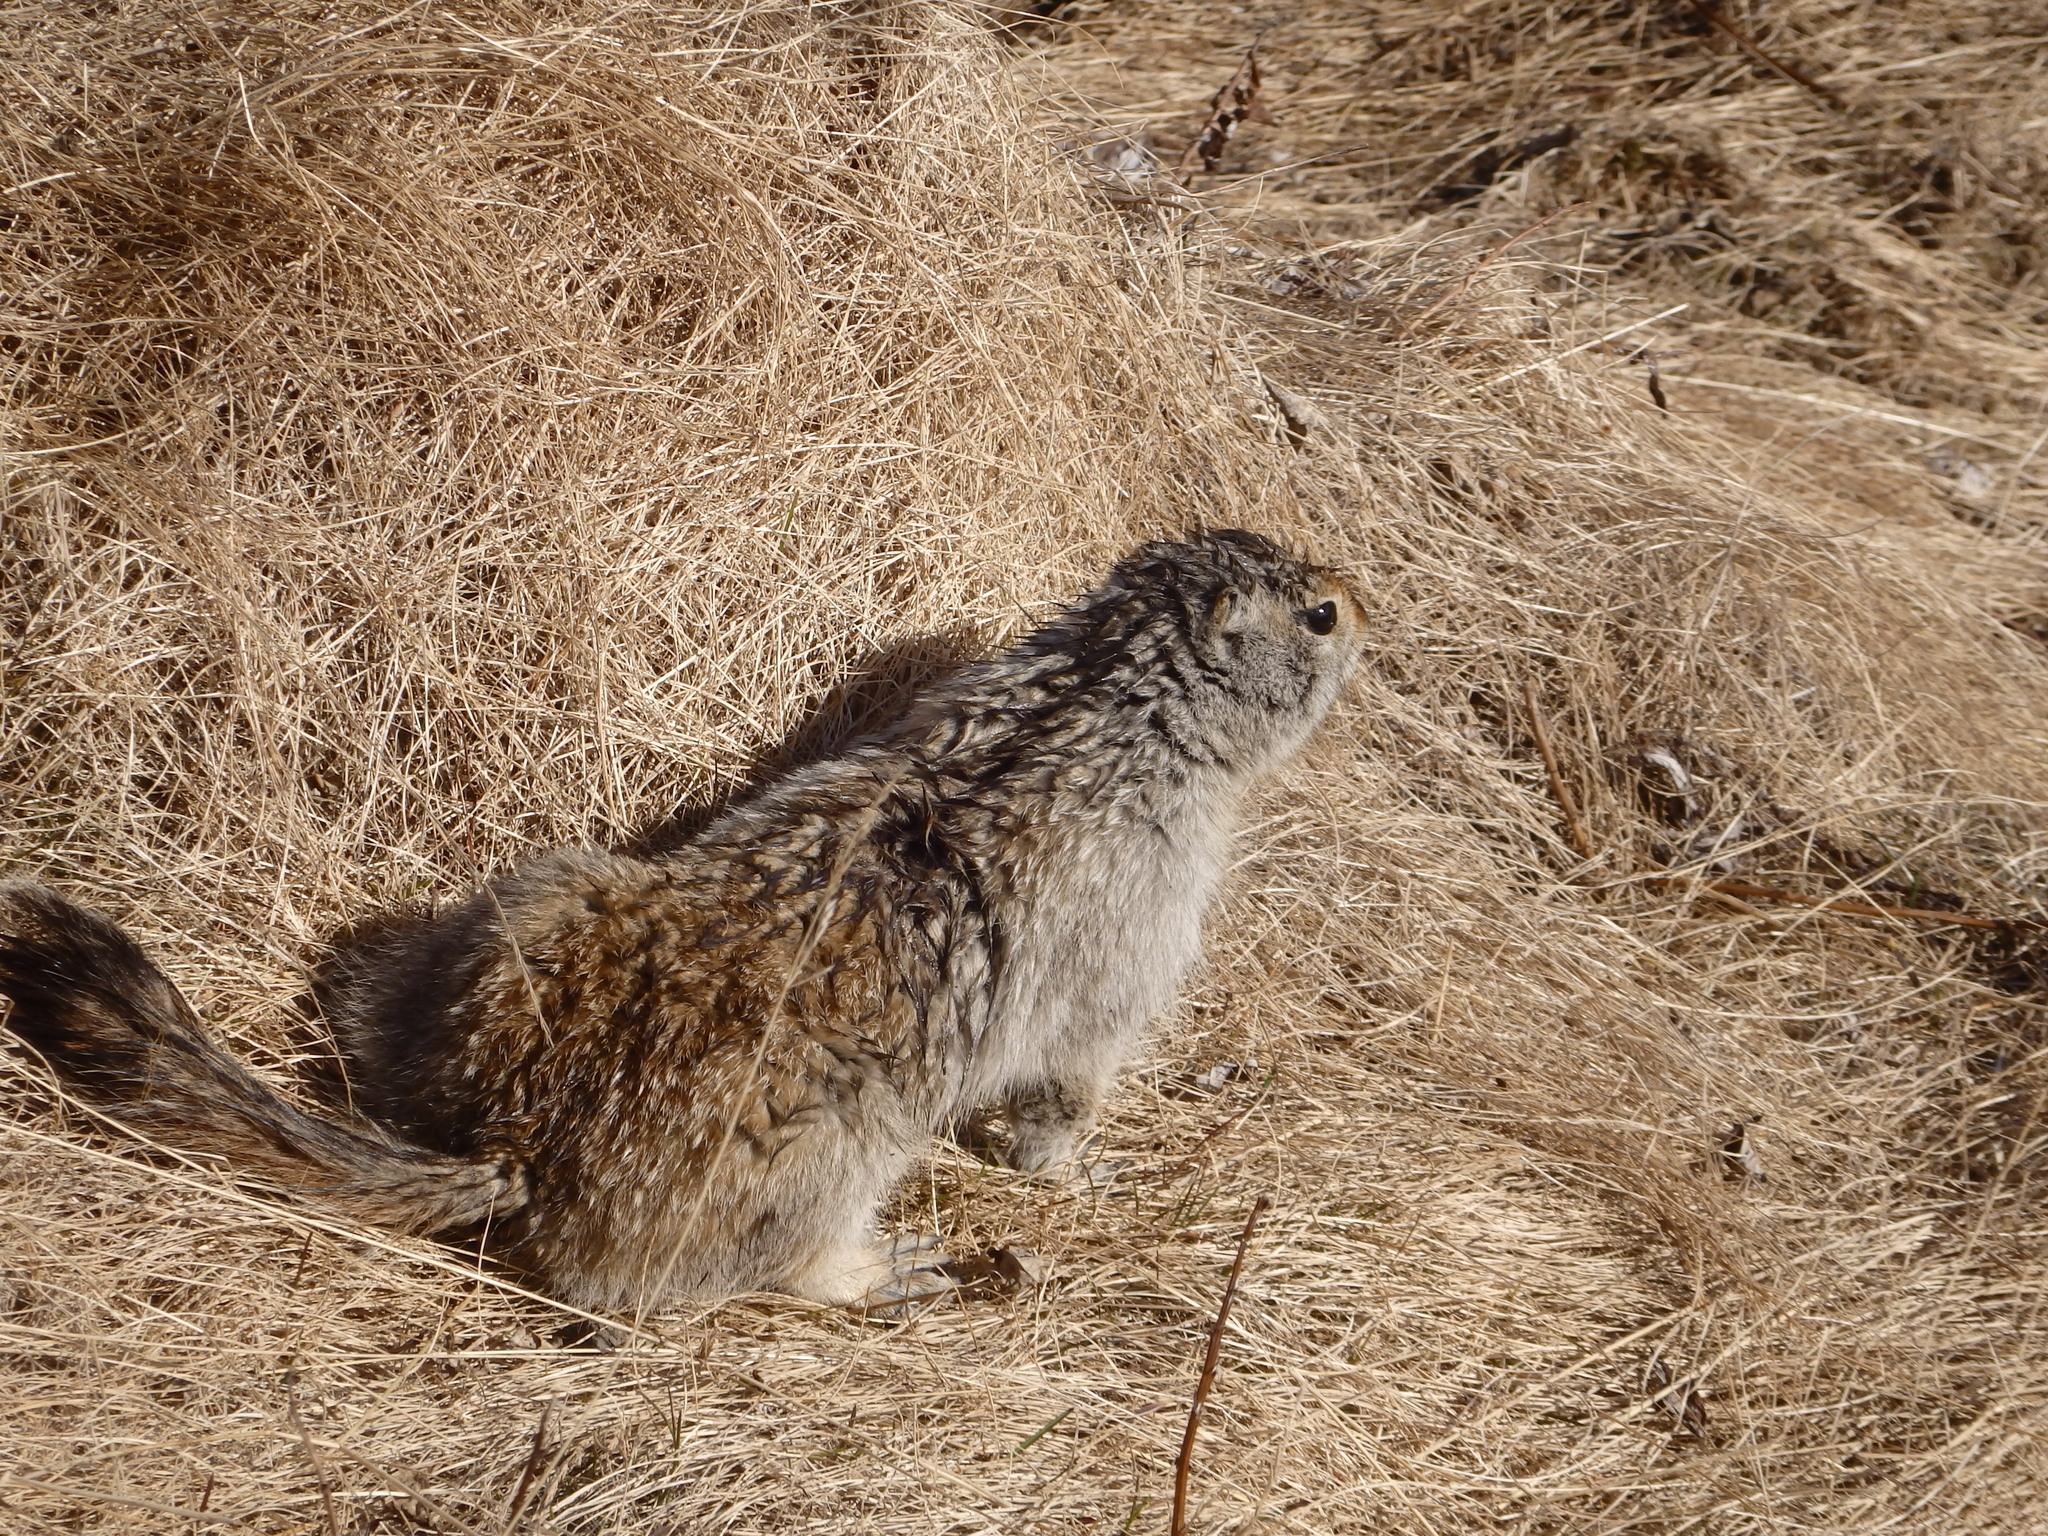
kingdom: Animalia
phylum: Chordata
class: Mammalia
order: Rodentia
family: Sciuridae
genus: Urocitellus
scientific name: Urocitellus parryii
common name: Arctic ground squirrel
